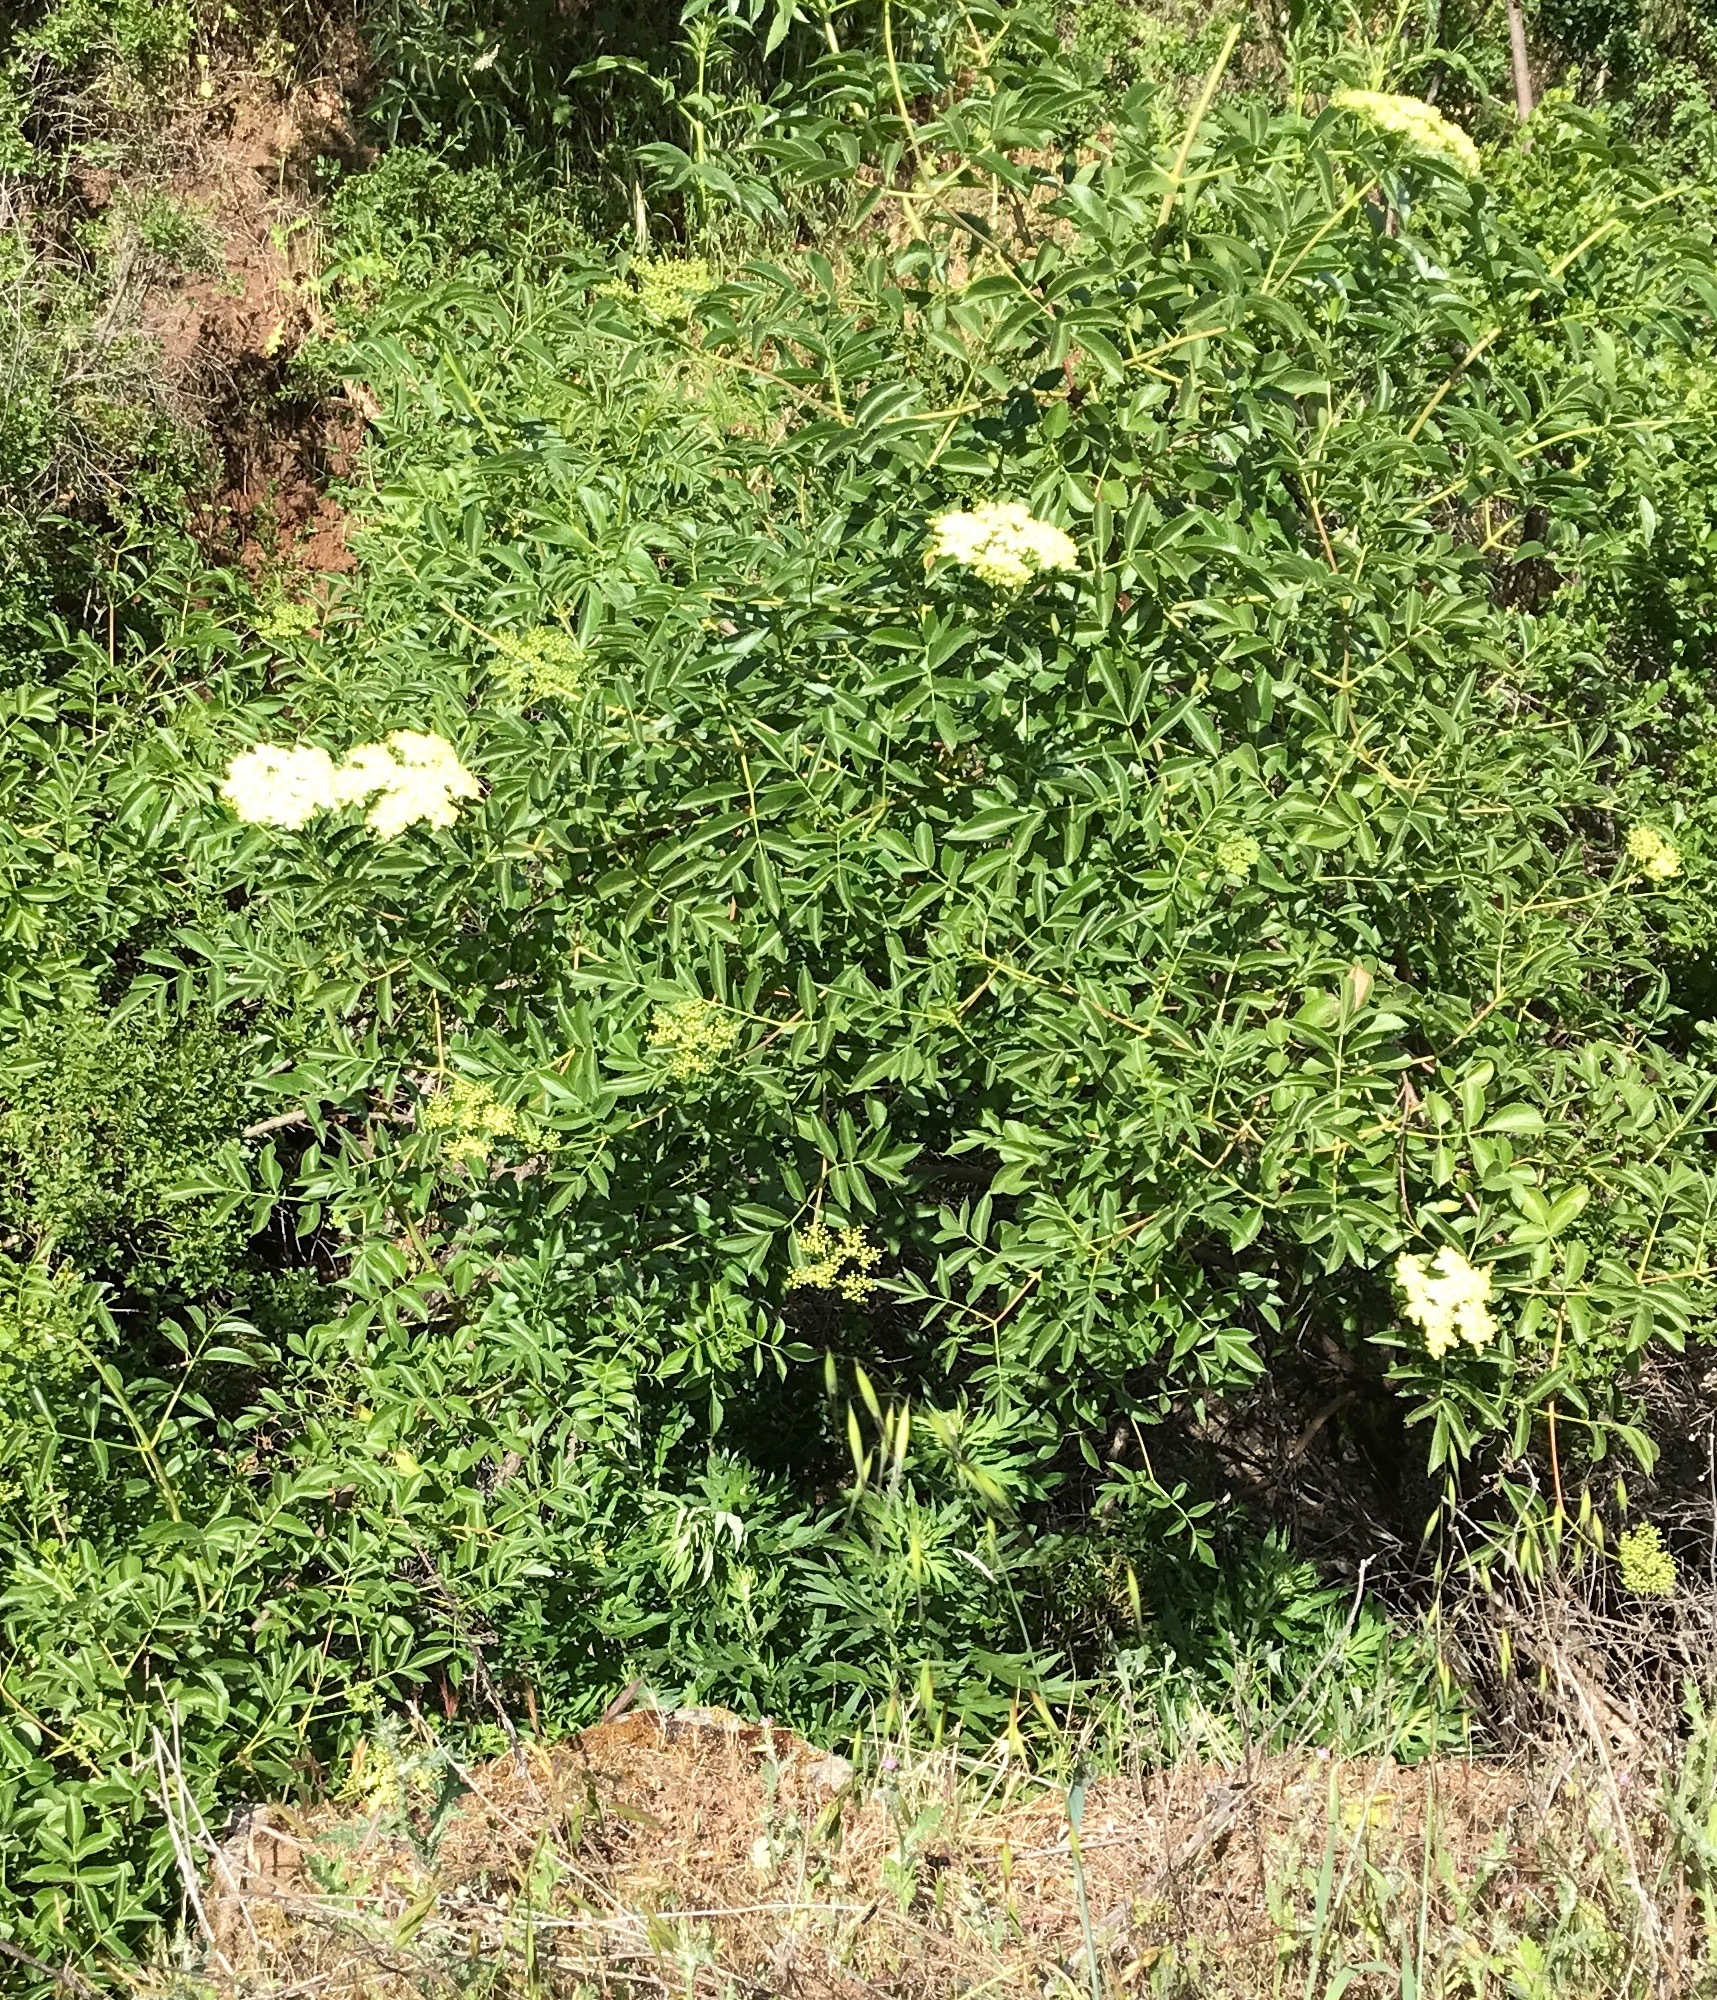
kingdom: Plantae
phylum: Tracheophyta
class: Magnoliopsida
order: Dipsacales
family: Viburnaceae
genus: Sambucus
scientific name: Sambucus cerulea
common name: Blue elder
